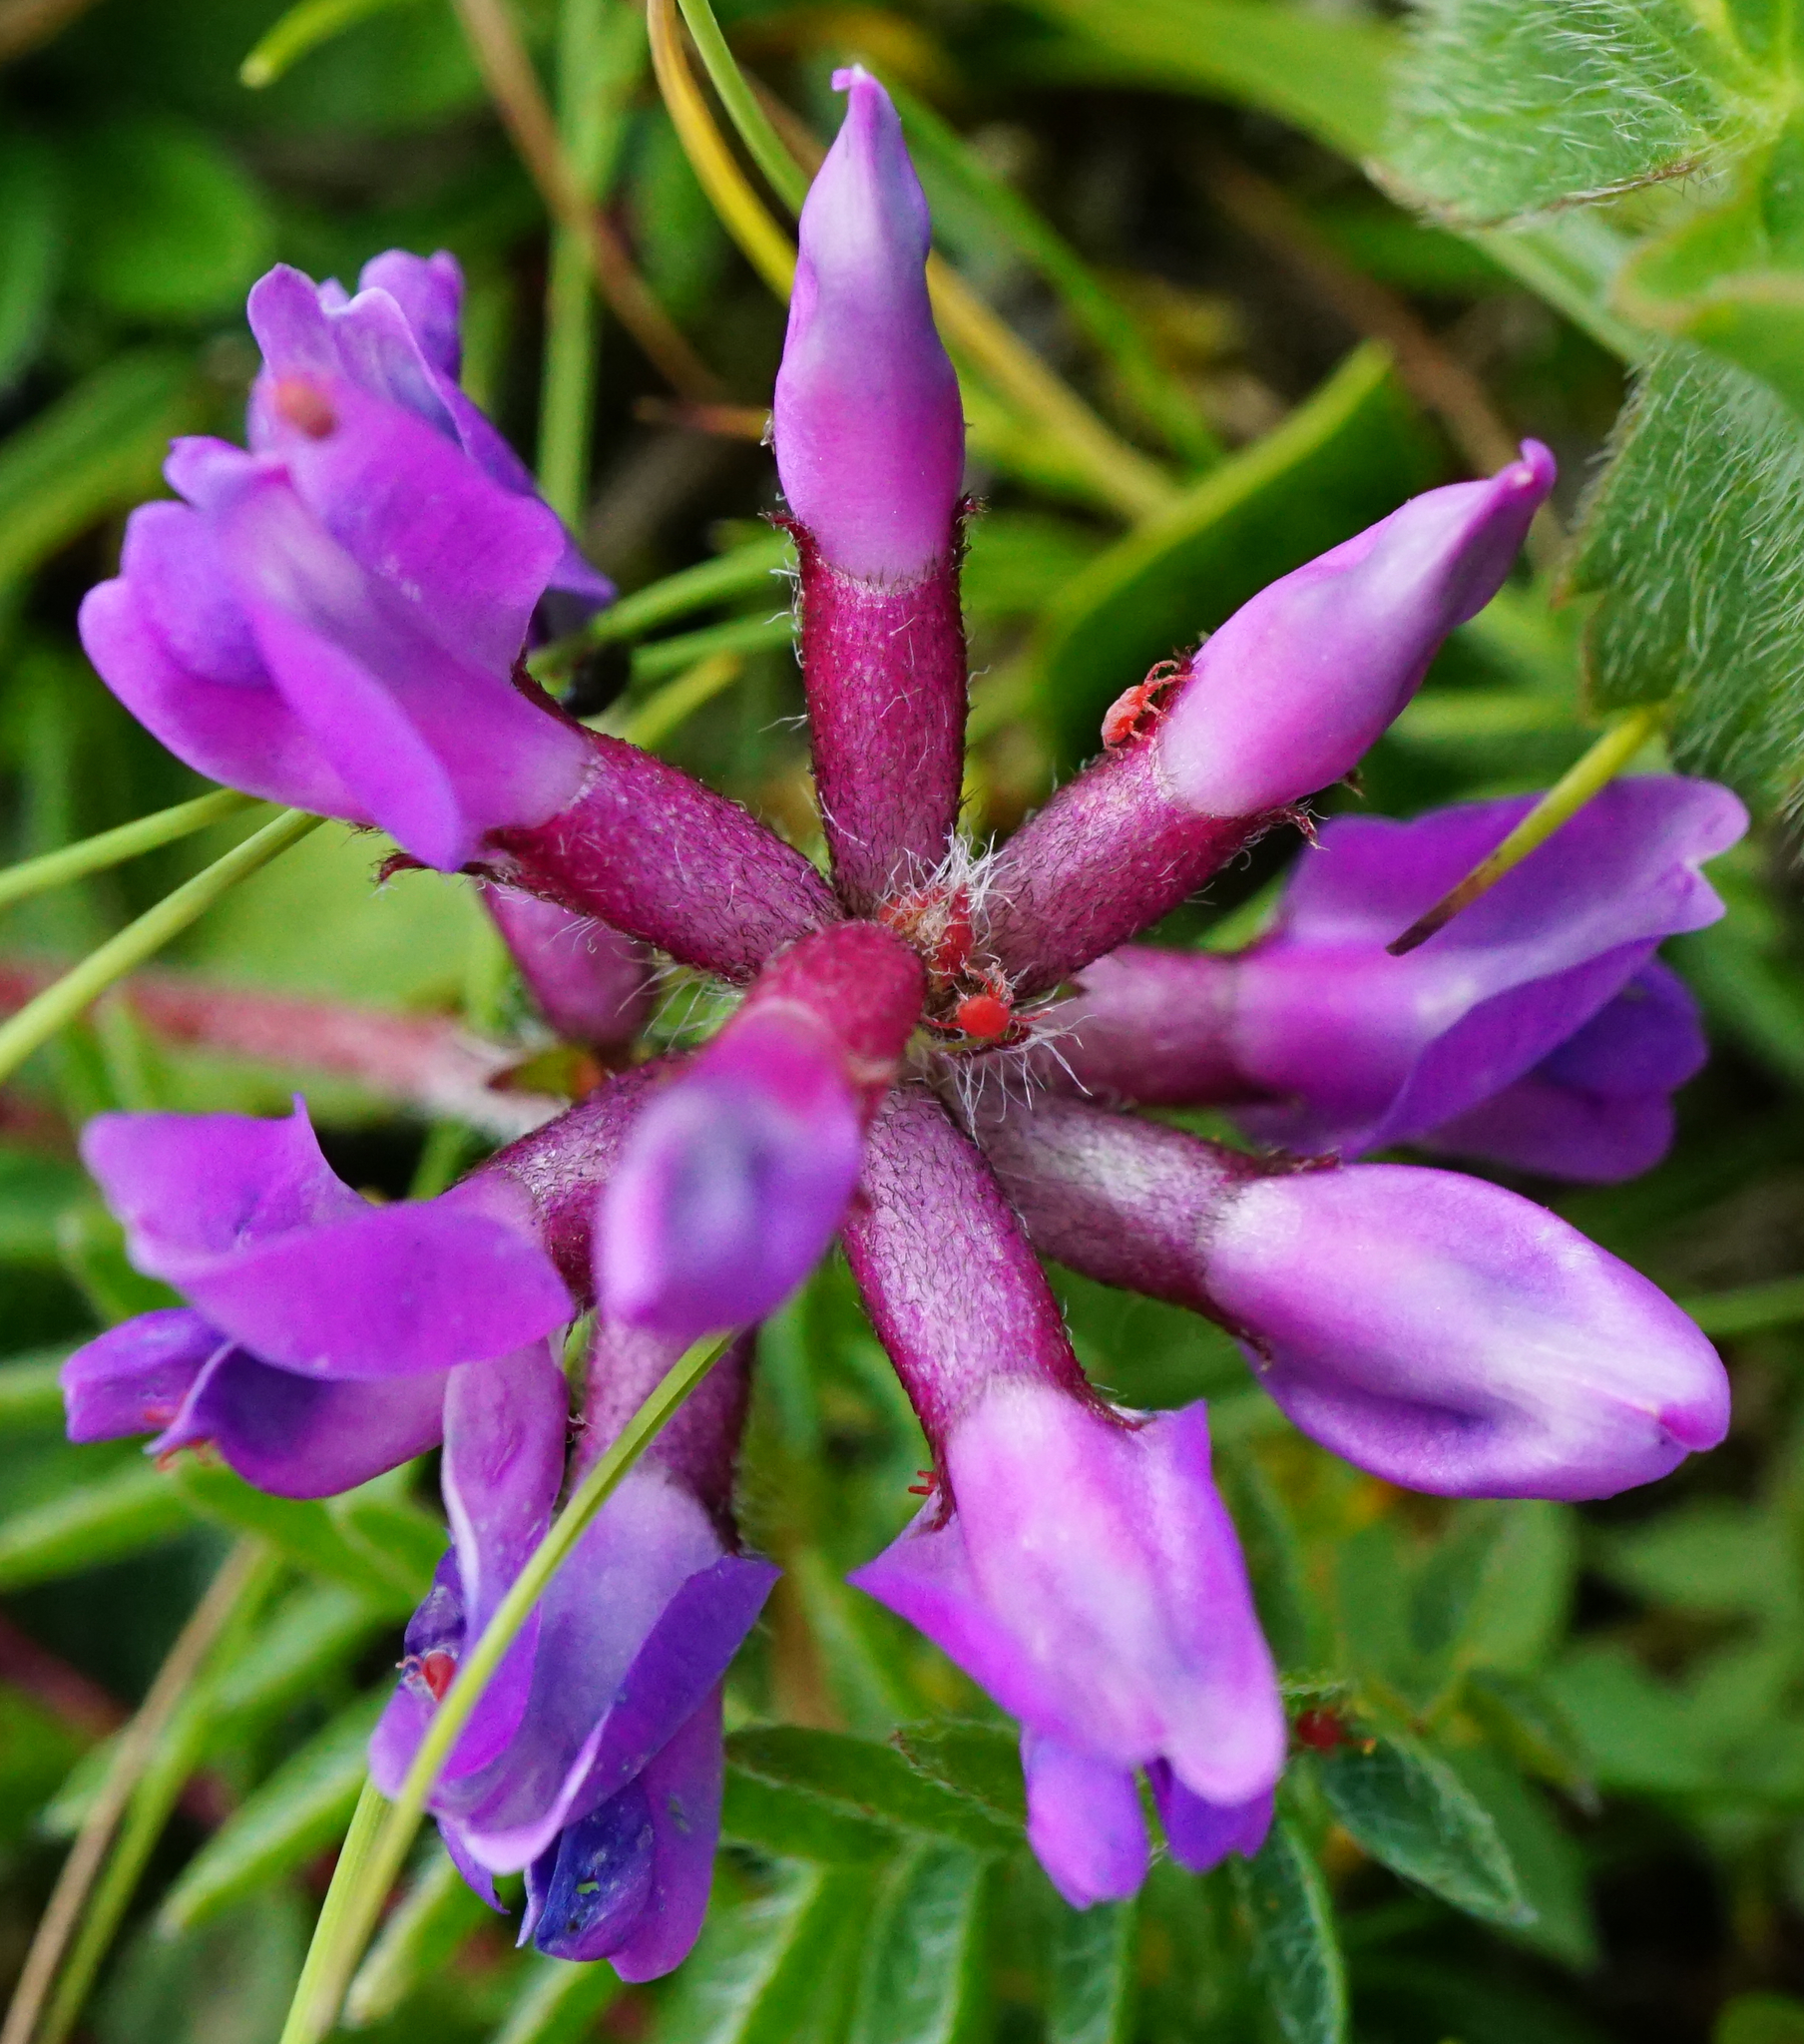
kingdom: Plantae
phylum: Tracheophyta
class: Magnoliopsida
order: Fabales
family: Fabaceae
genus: Oxytropis
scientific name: Oxytropis montana
